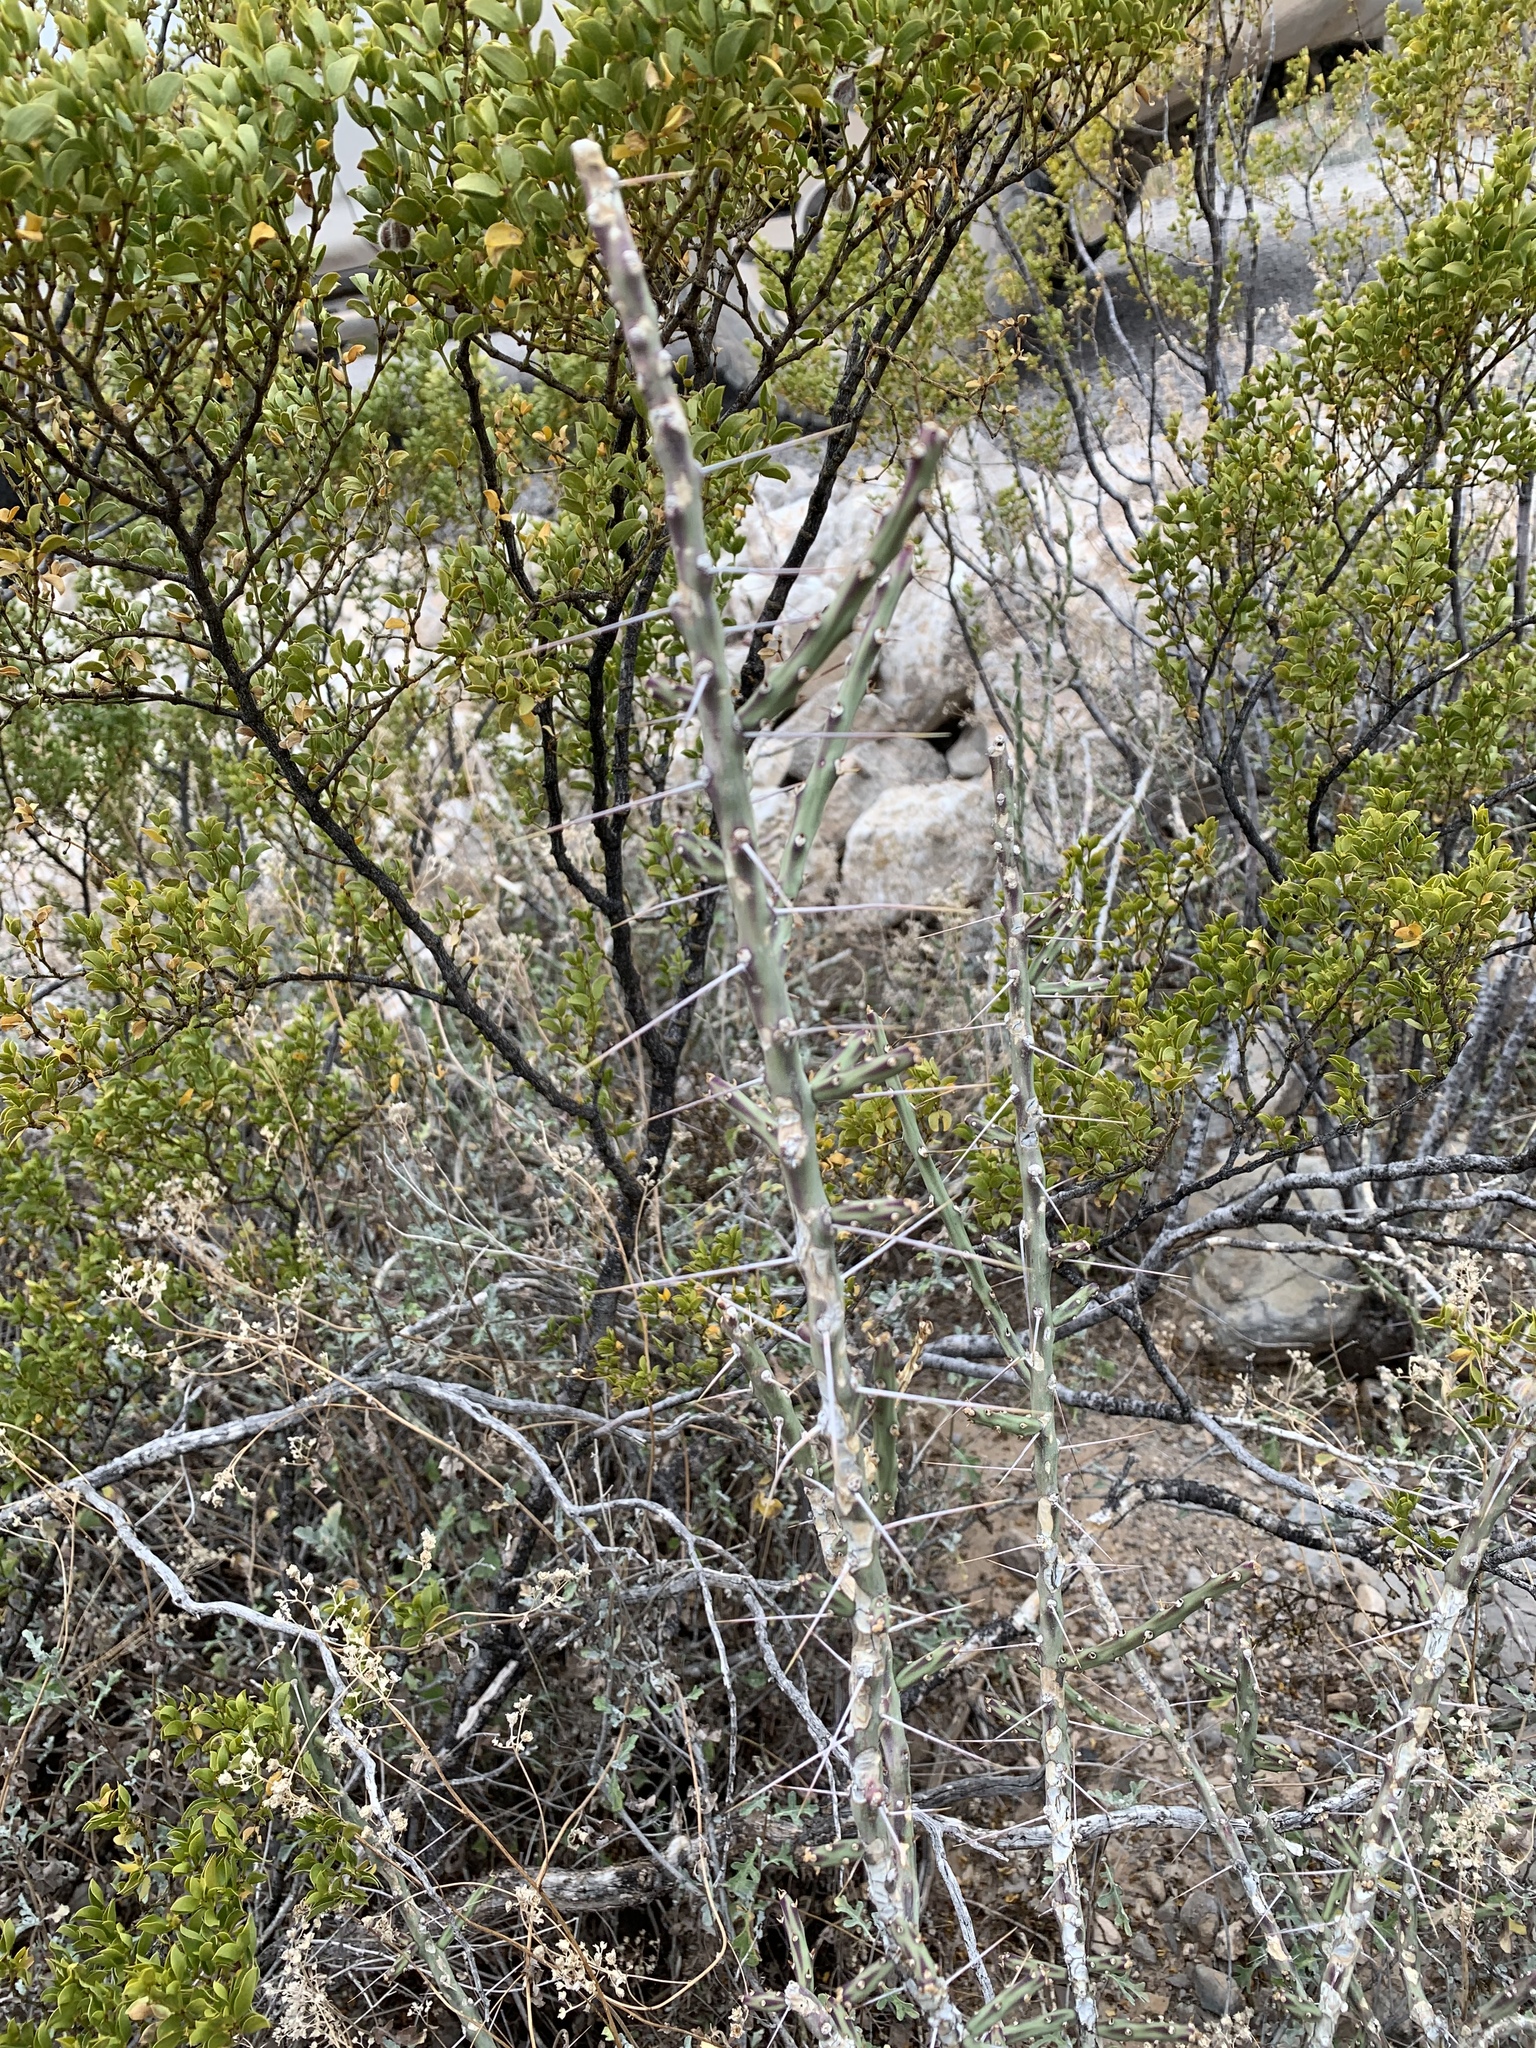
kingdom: Plantae
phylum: Tracheophyta
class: Magnoliopsida
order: Caryophyllales
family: Cactaceae
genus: Cylindropuntia
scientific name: Cylindropuntia leptocaulis
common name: Christmas cactus
